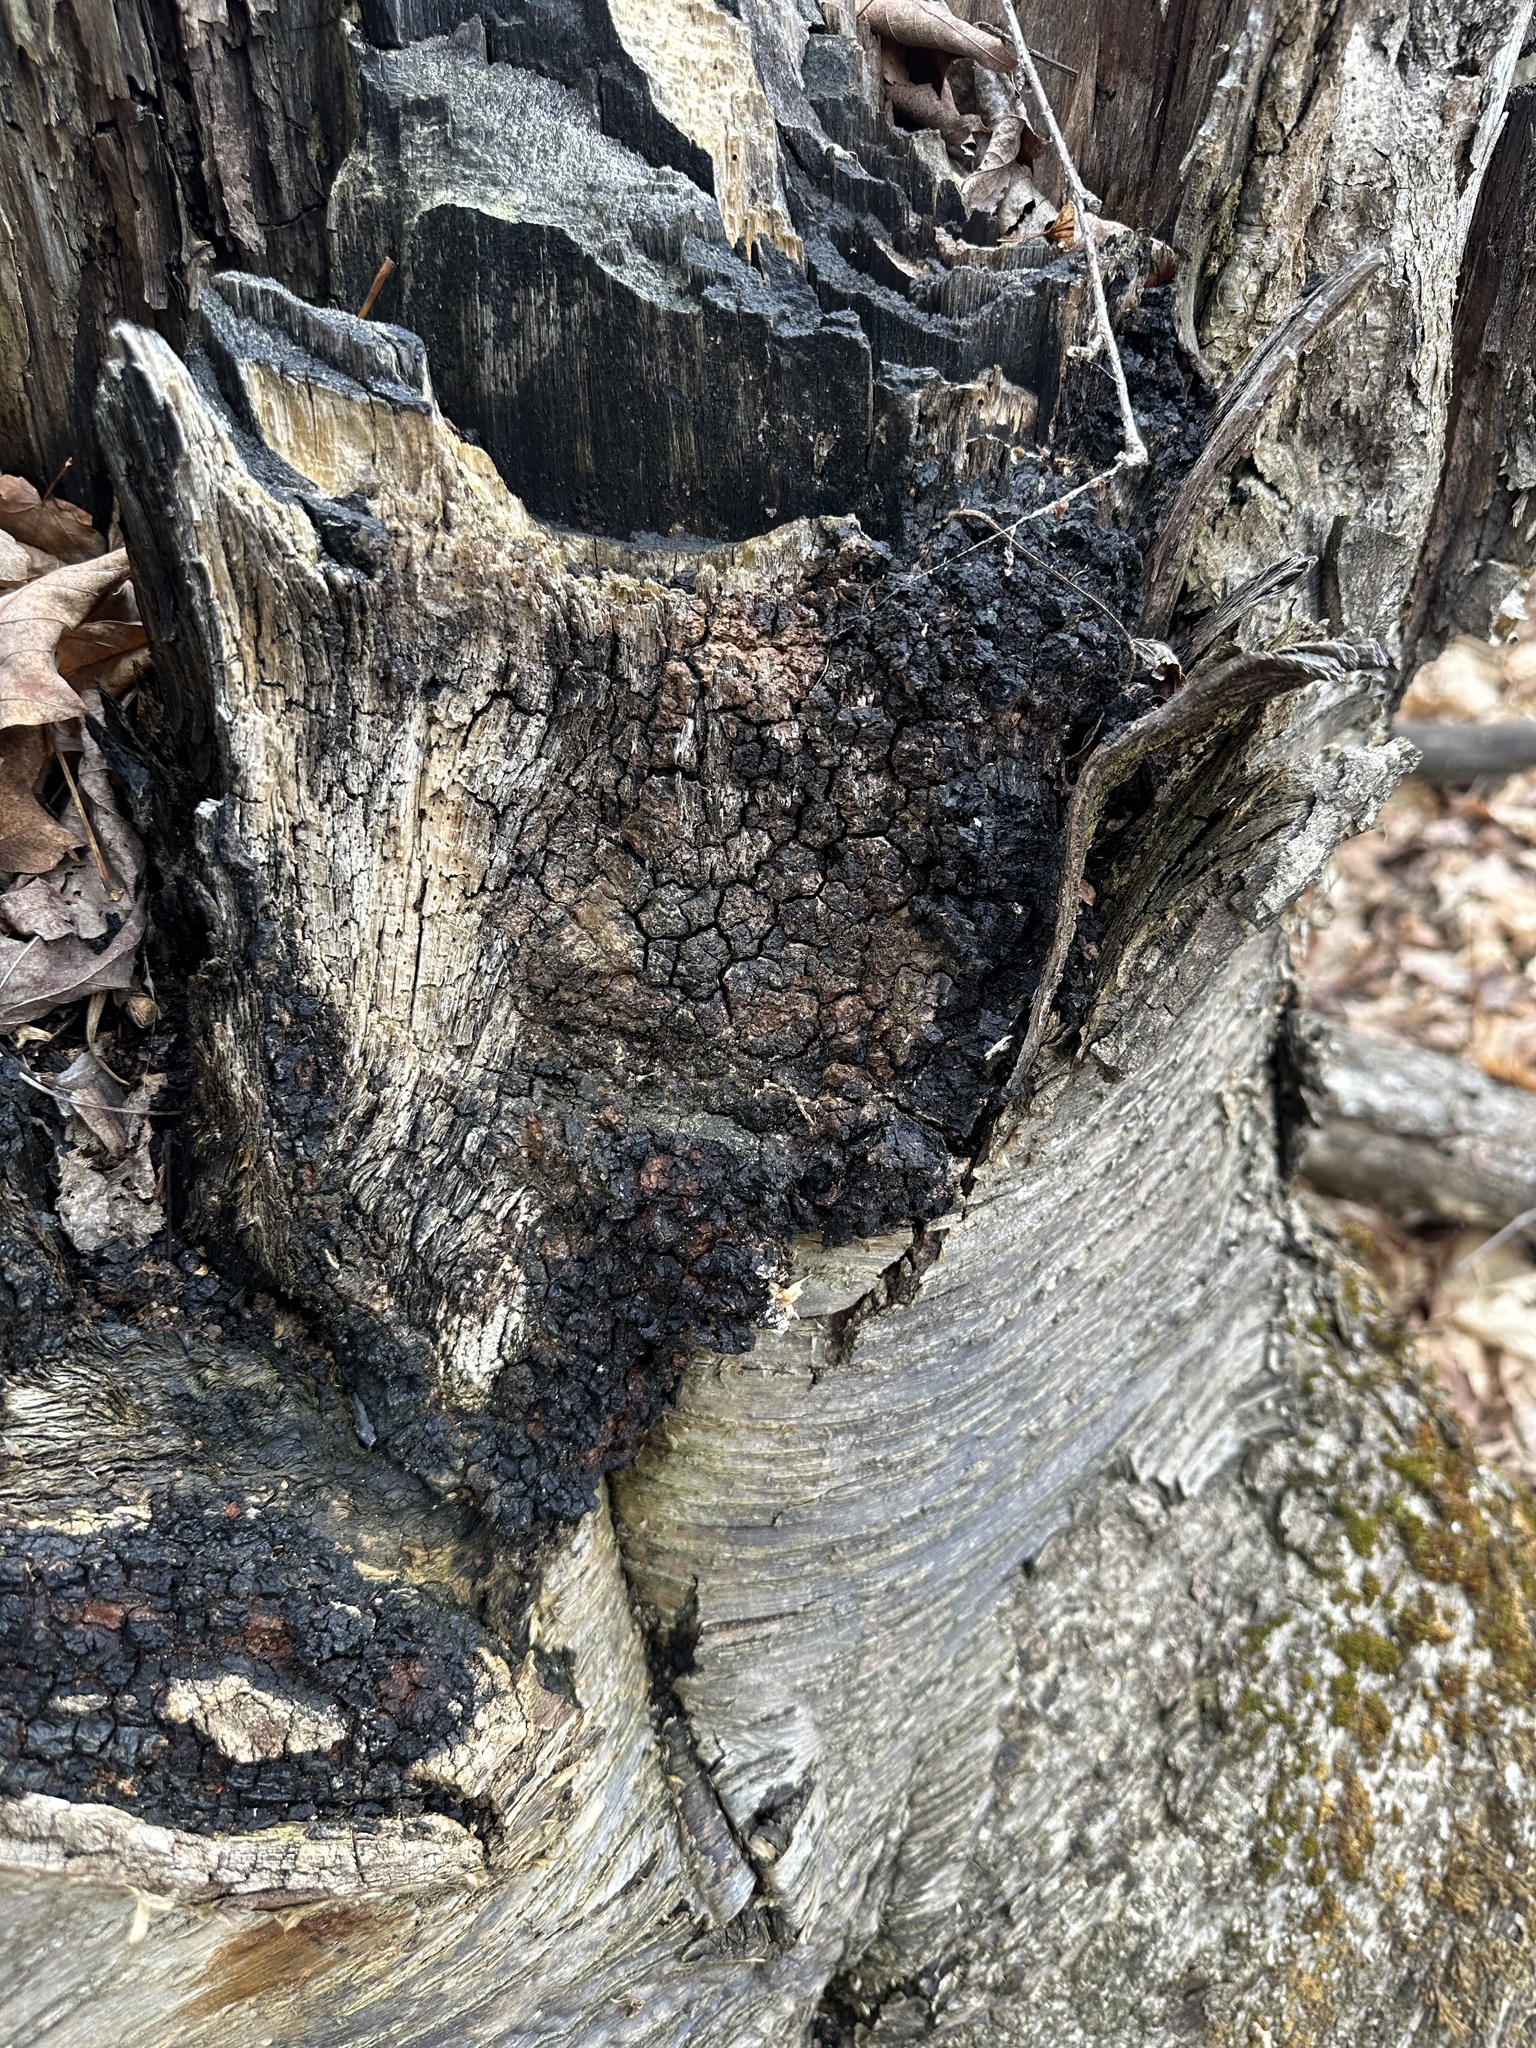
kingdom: Fungi
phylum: Basidiomycota
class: Agaricomycetes
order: Hymenochaetales
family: Hymenochaetaceae
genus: Inonotus
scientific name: Inonotus obliquus
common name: Chaga
